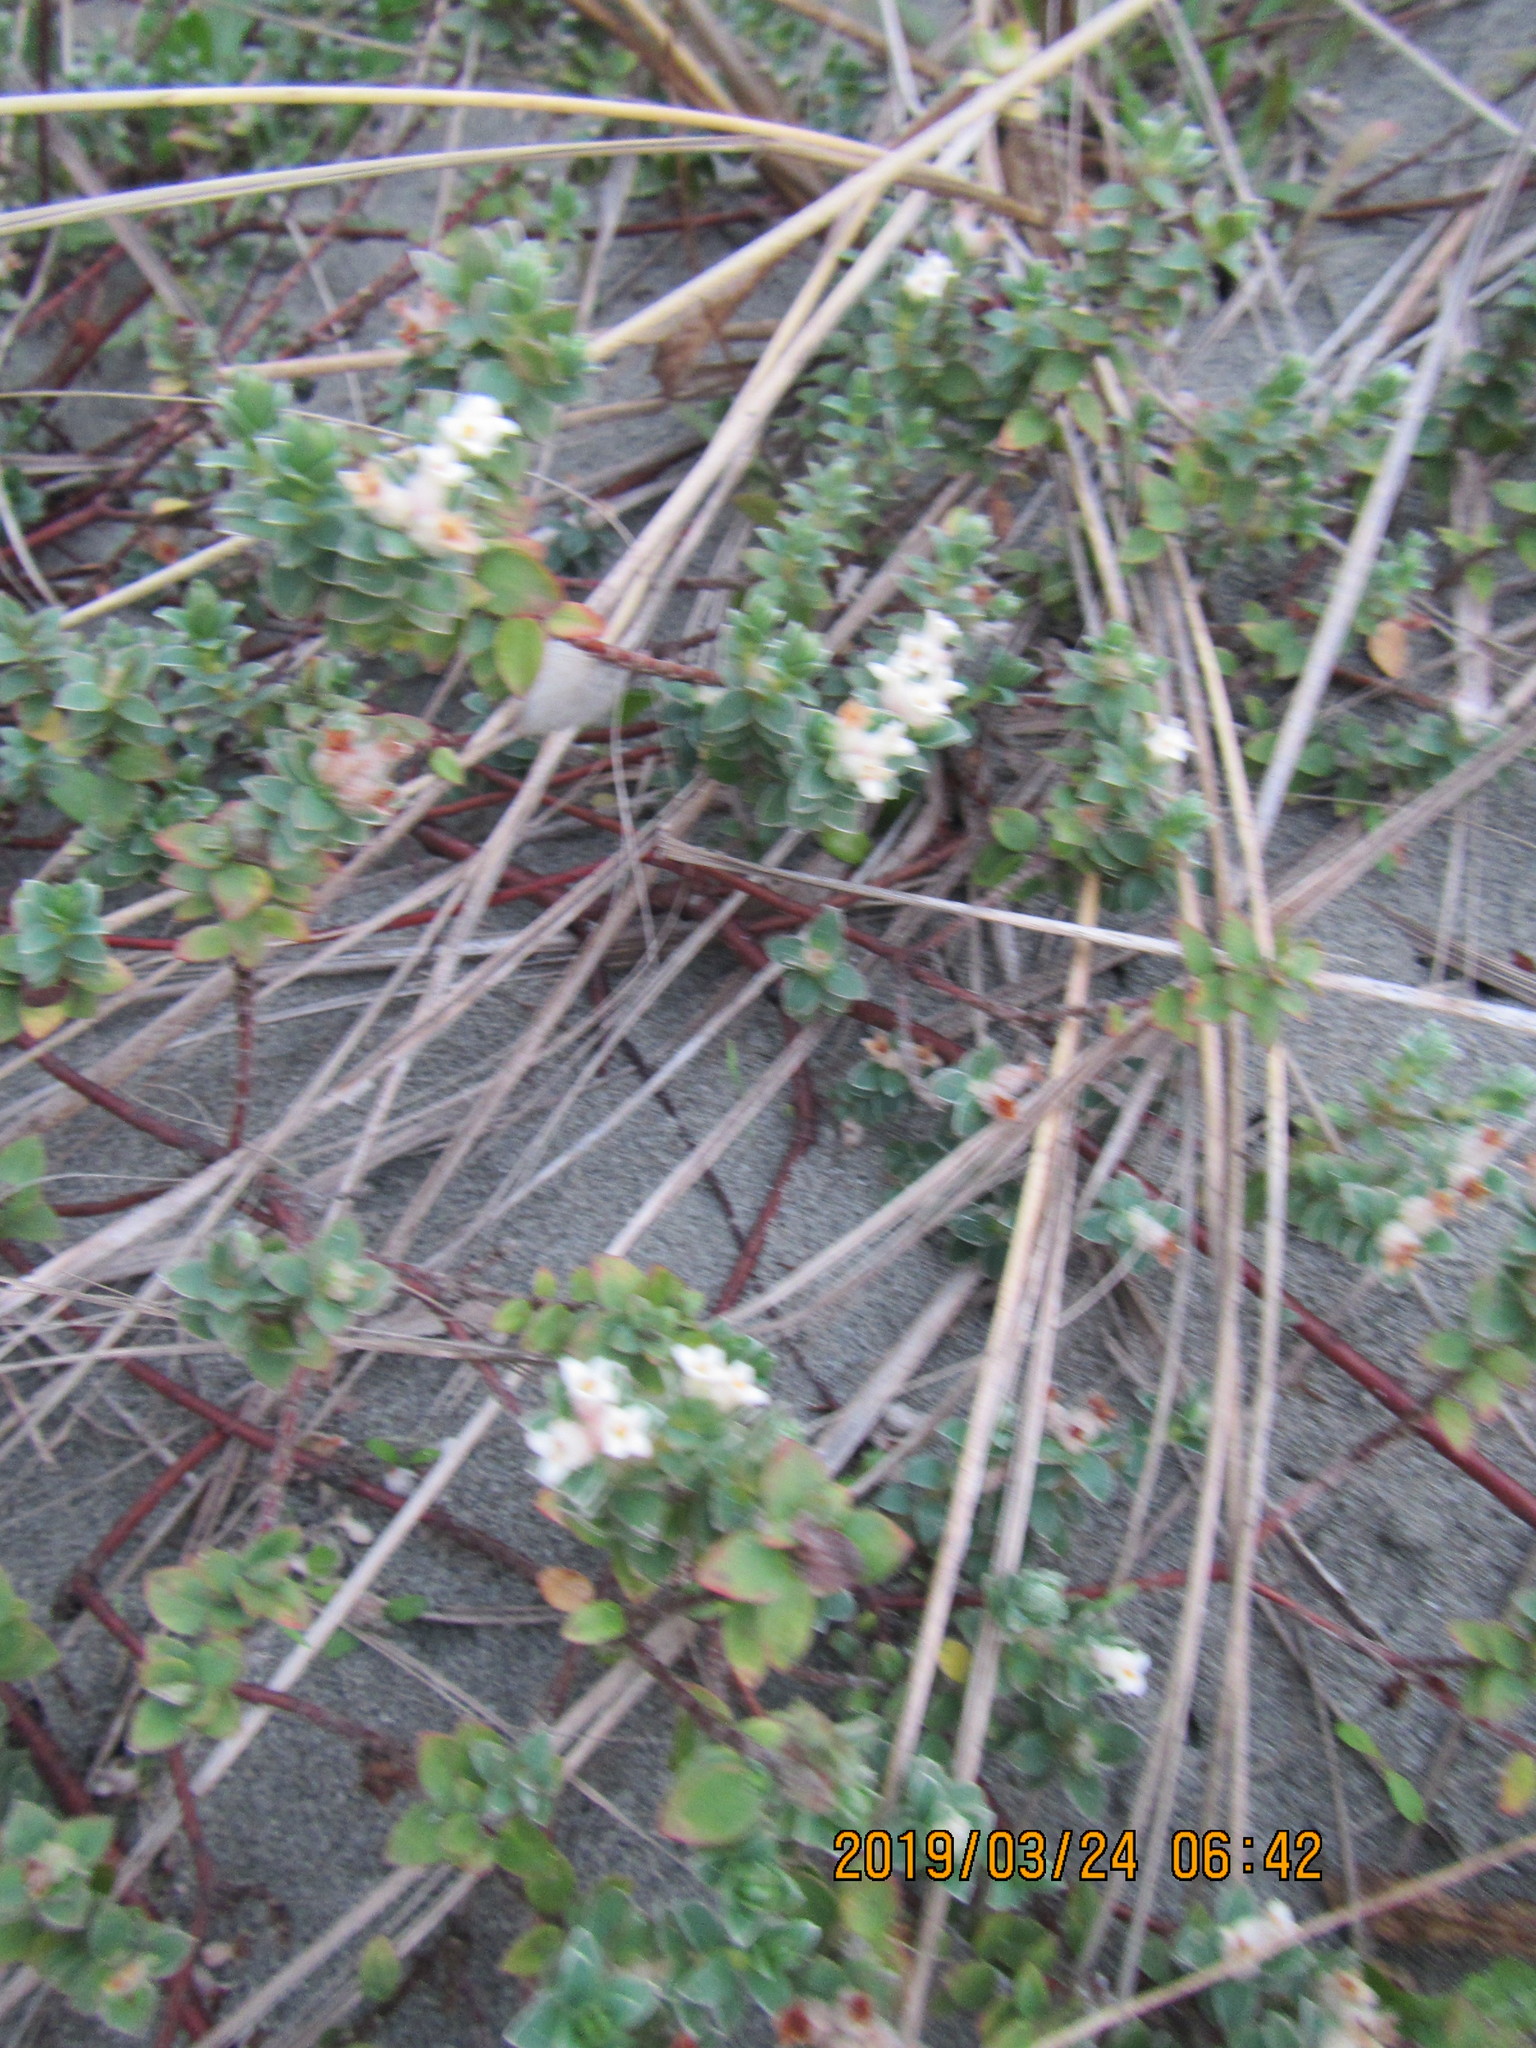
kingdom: Plantae
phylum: Tracheophyta
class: Magnoliopsida
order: Malvales
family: Thymelaeaceae
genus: Pimelea
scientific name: Pimelea villosa
